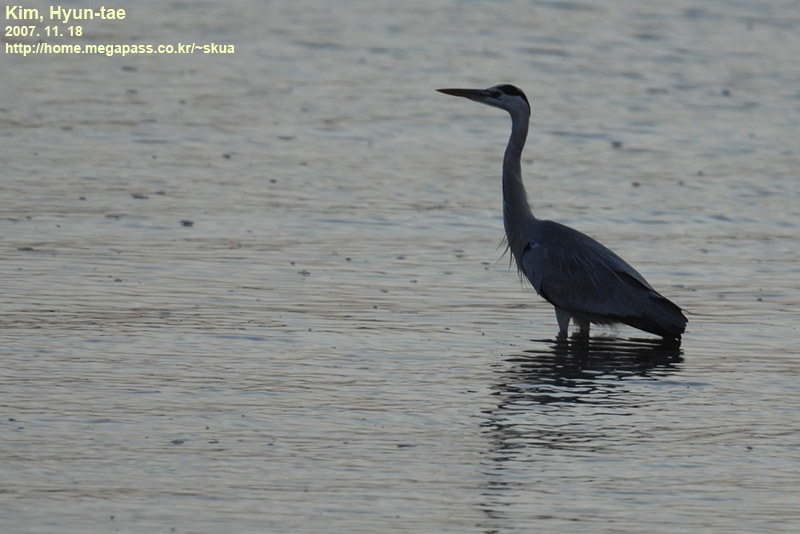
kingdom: Animalia
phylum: Chordata
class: Aves
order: Pelecaniformes
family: Ardeidae
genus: Ardea
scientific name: Ardea cinerea
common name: Grey heron
